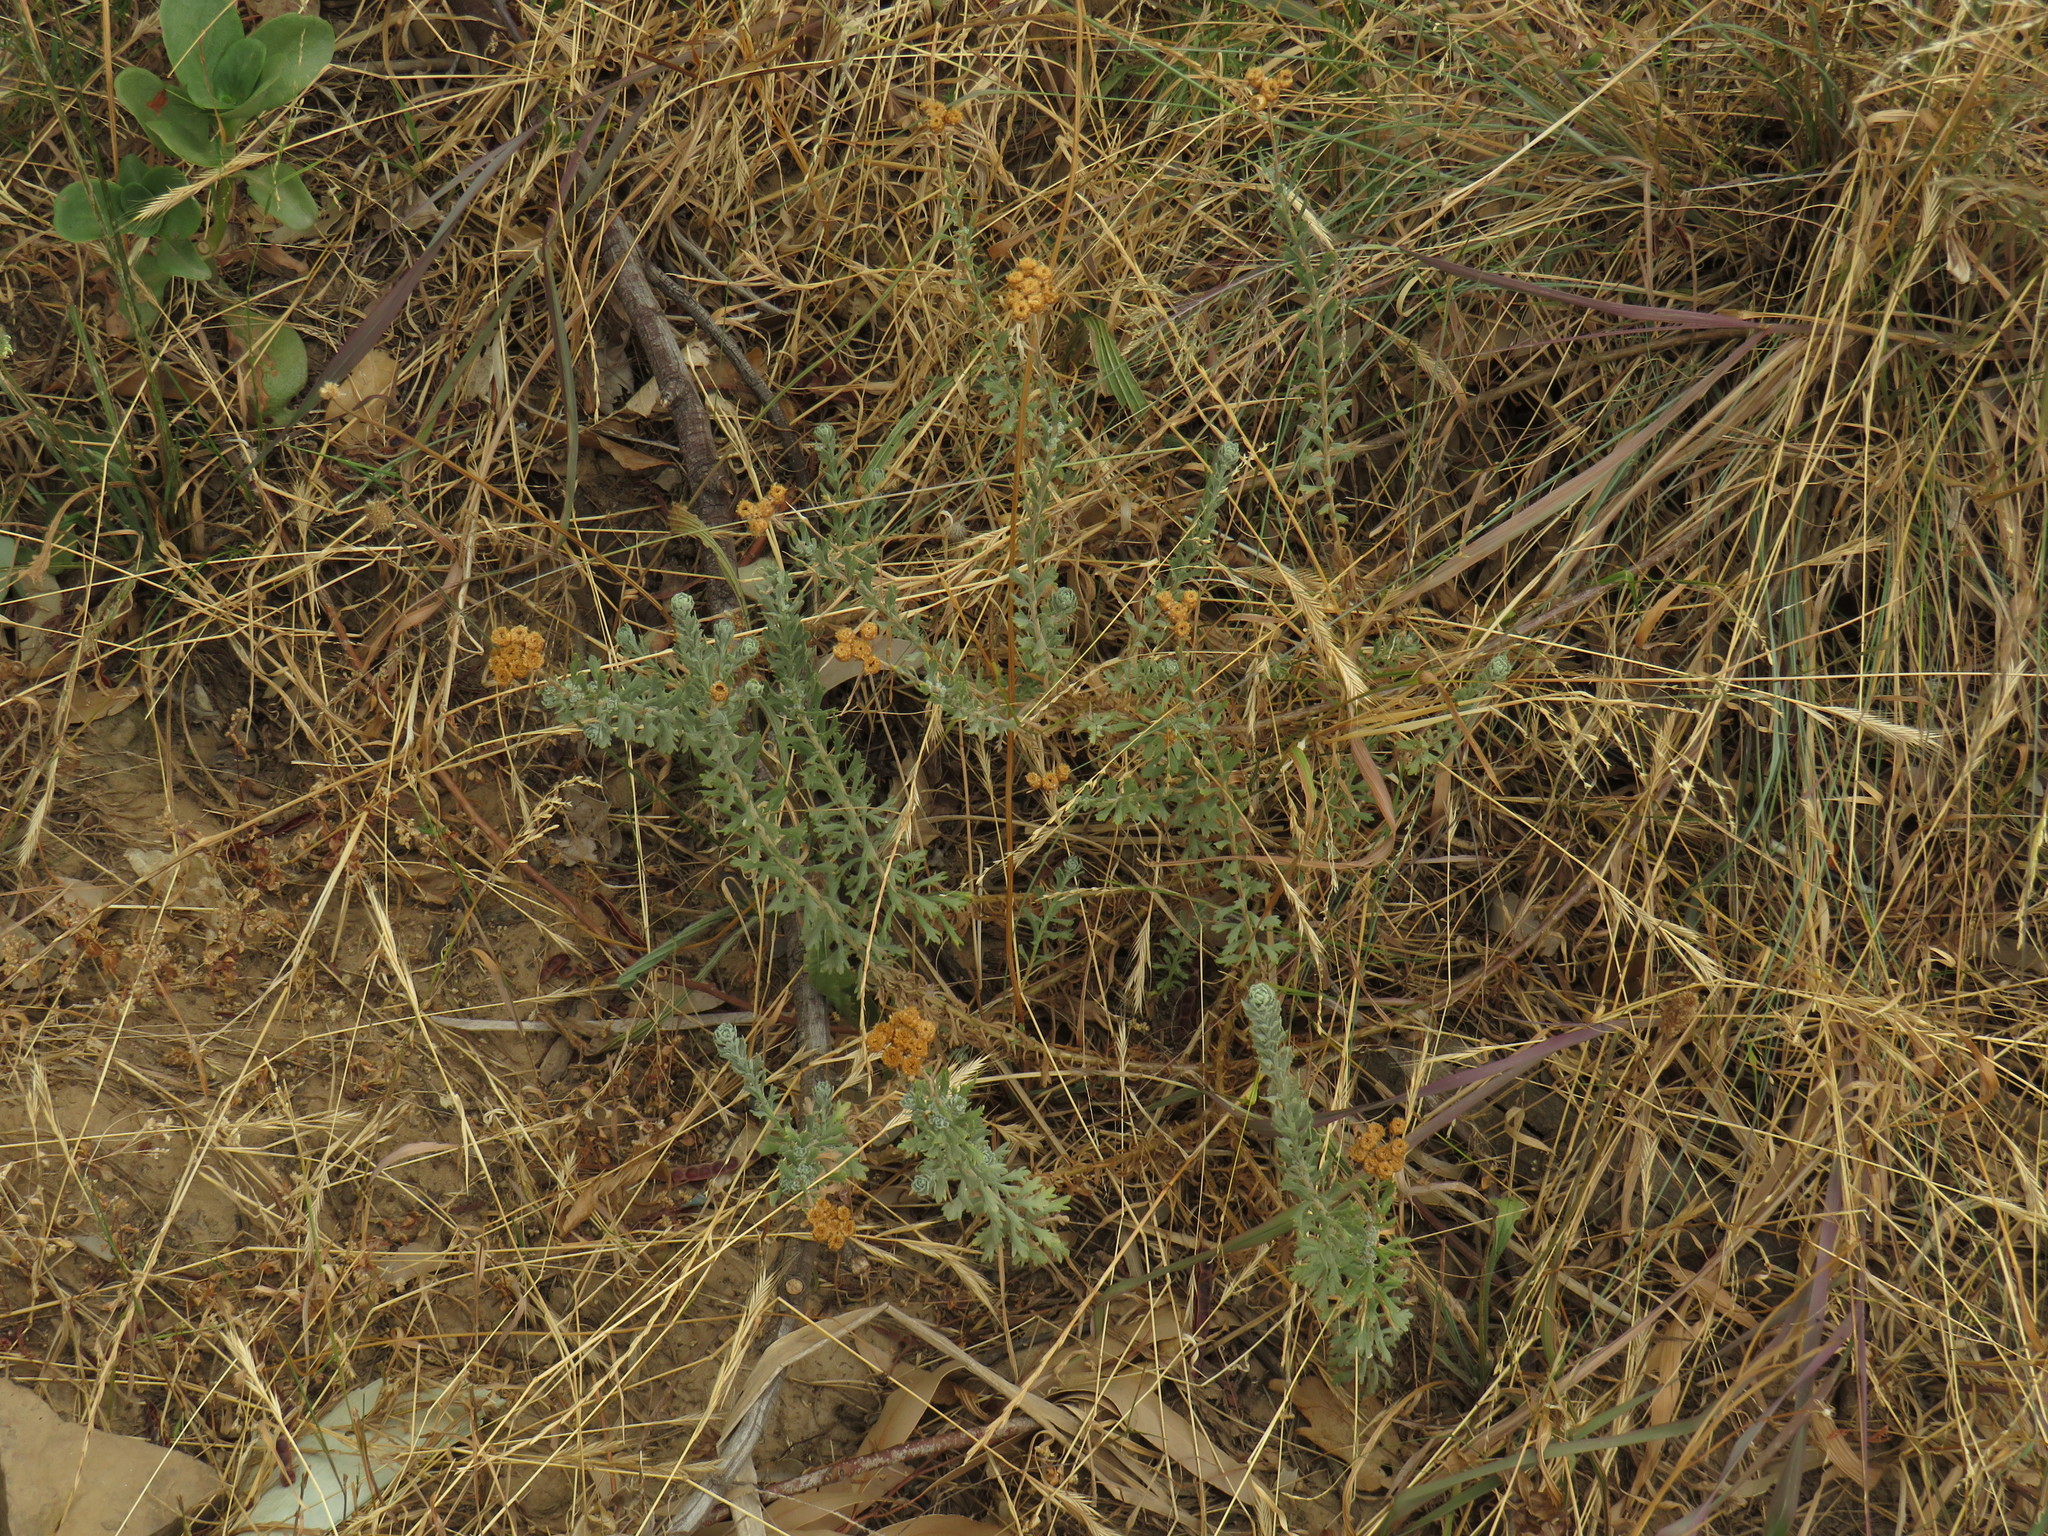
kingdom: Plantae
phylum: Tracheophyta
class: Magnoliopsida
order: Asterales
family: Asteraceae
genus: Athanasia
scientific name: Athanasia trifurcata
